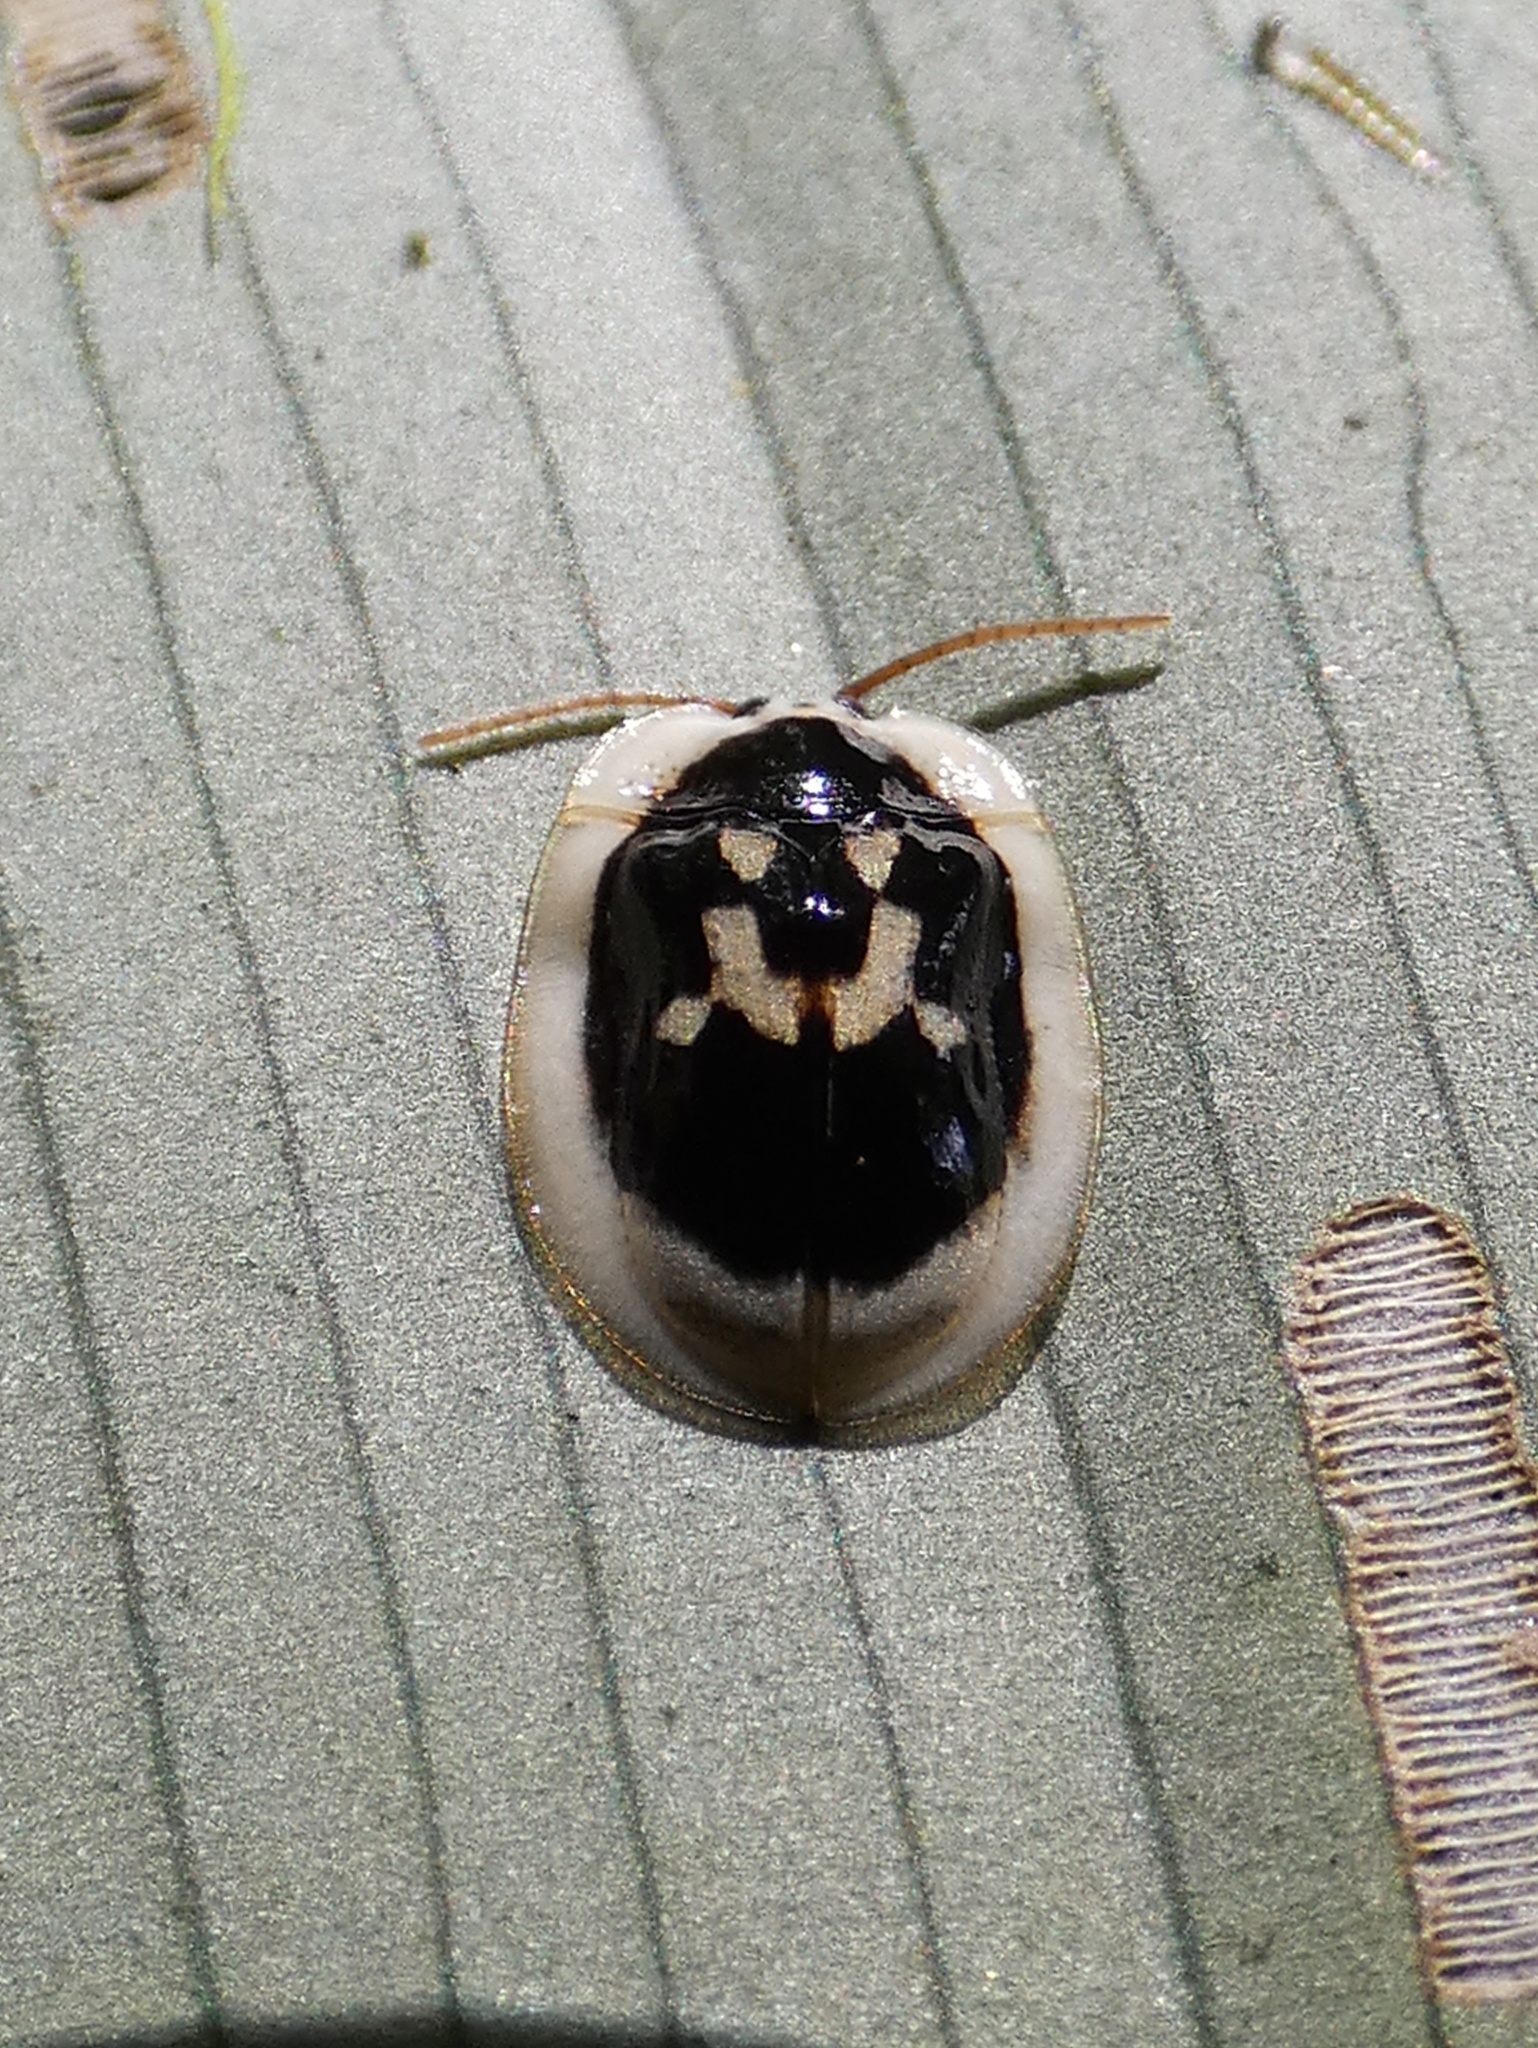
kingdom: Animalia
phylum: Arthropoda
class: Insecta
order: Coleoptera
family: Chrysomelidae
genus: Aslamidium
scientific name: Aslamidium semicirculare
